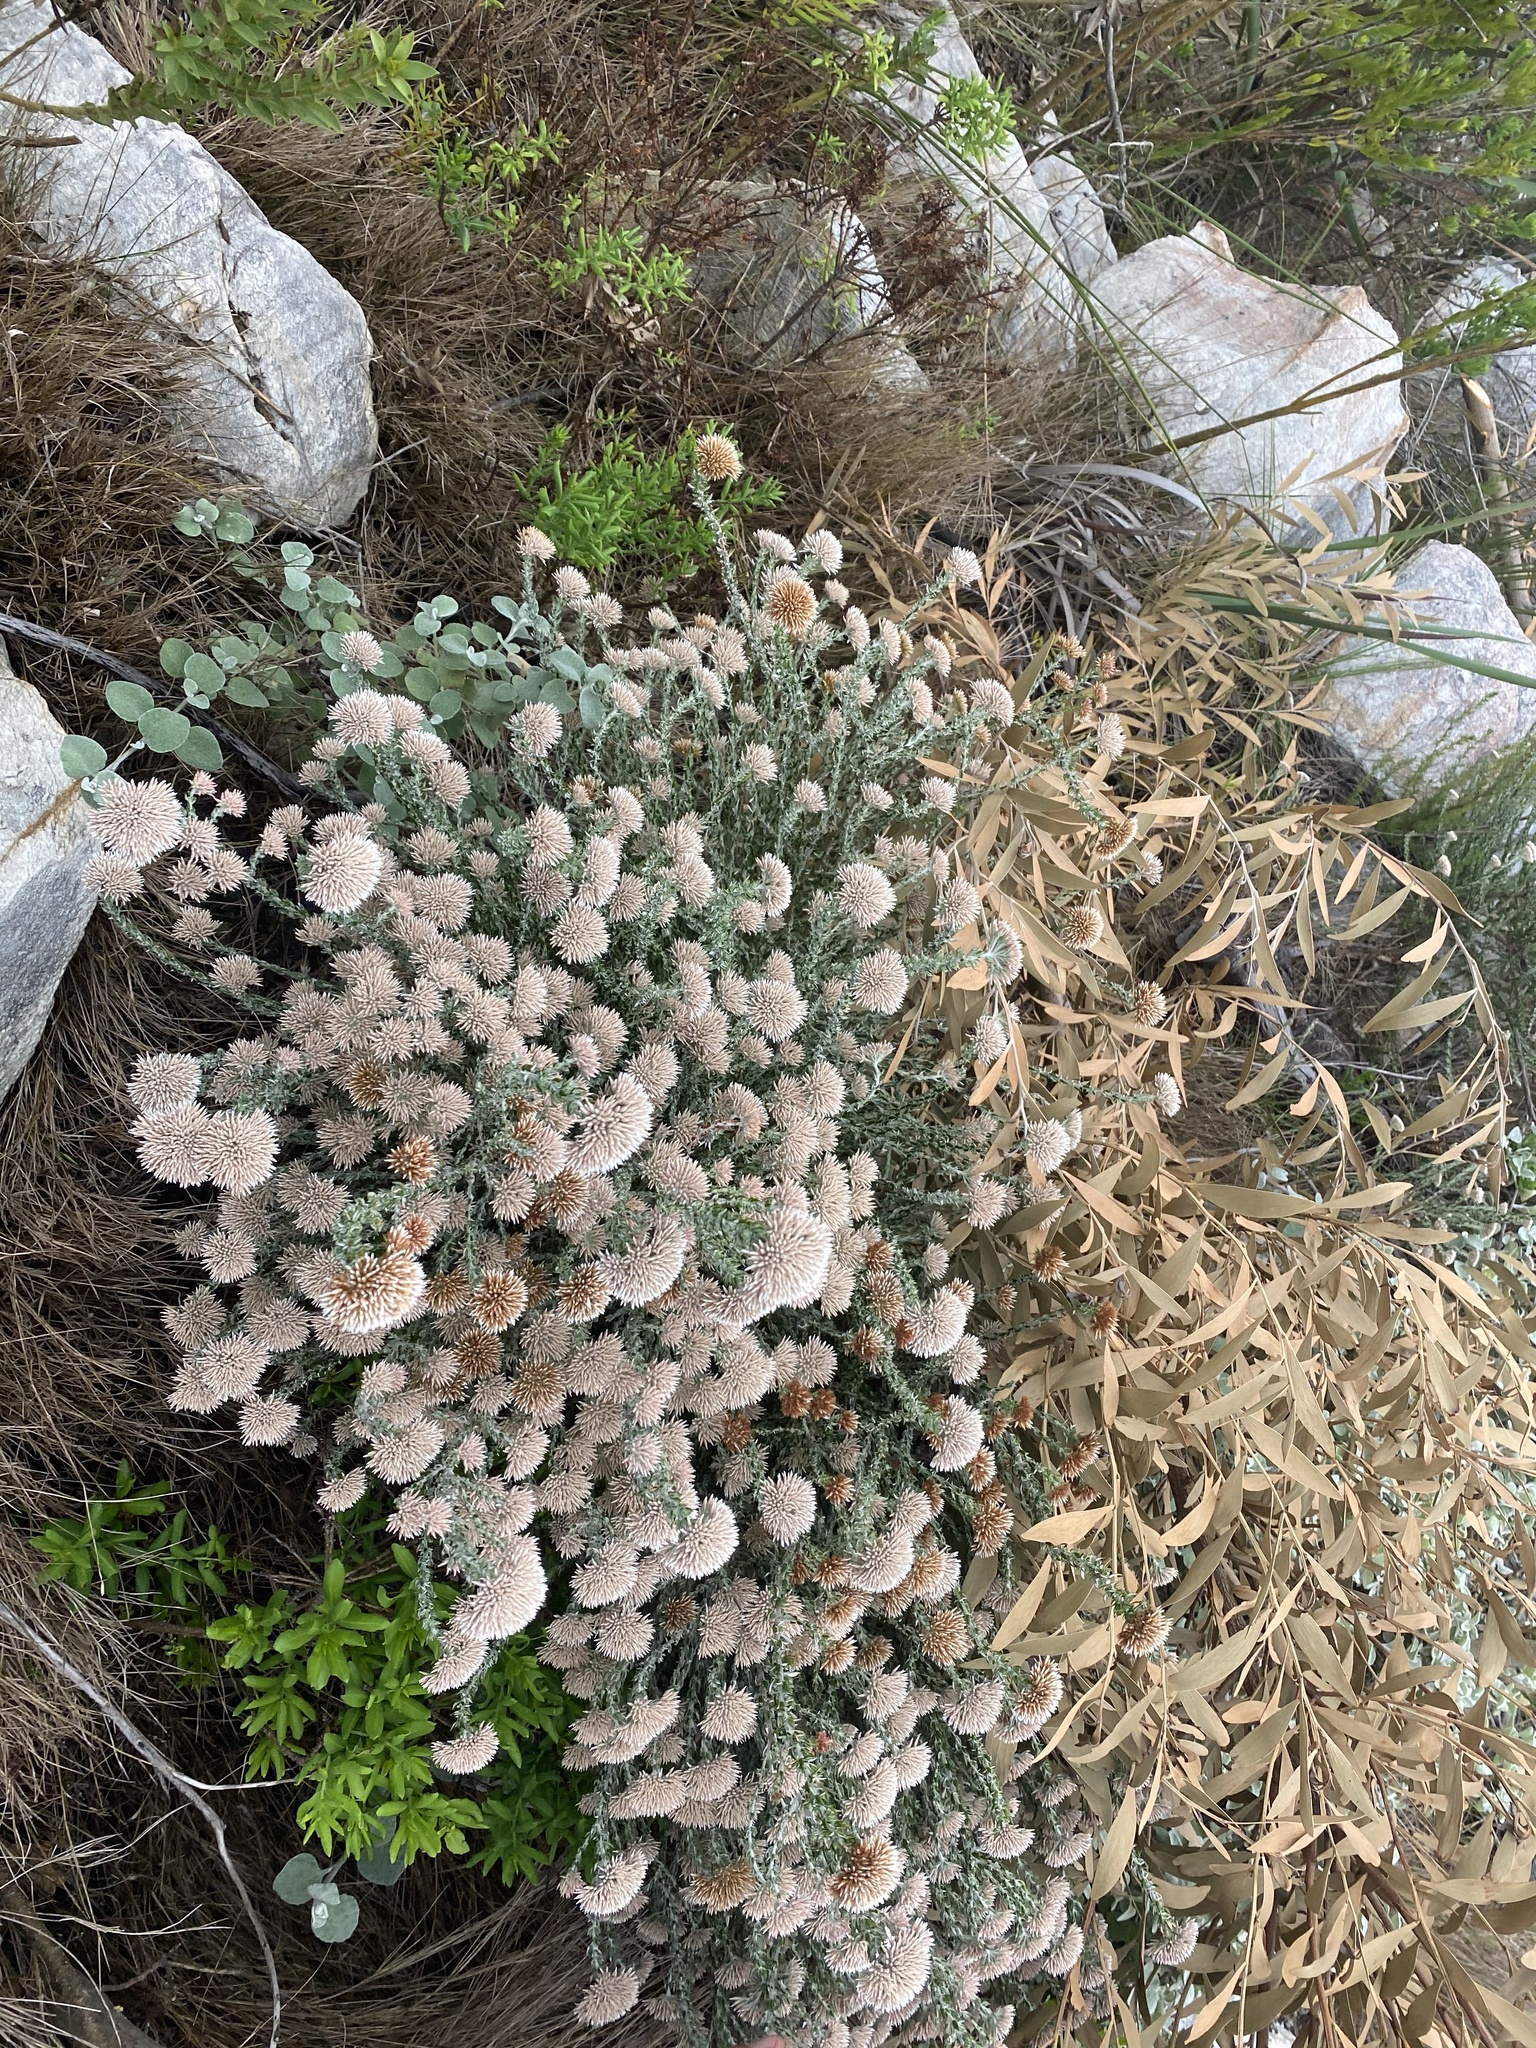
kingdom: Plantae
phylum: Tracheophyta
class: Magnoliopsida
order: Asterales
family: Asteraceae
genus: Metalasia
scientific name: Metalasia pungens
